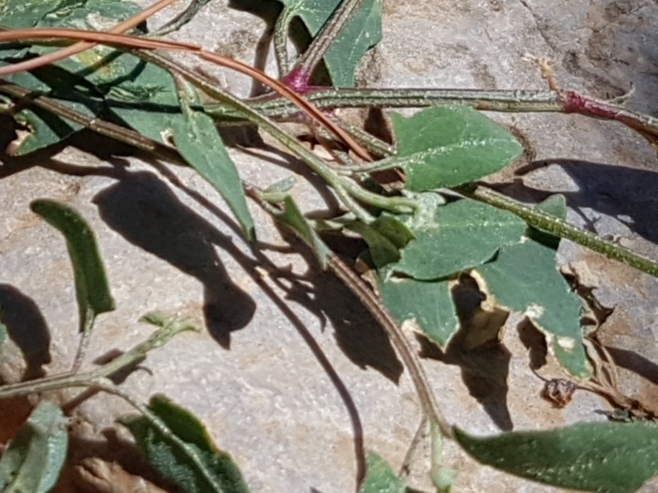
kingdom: Plantae
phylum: Tracheophyta
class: Magnoliopsida
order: Caryophyllales
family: Amaranthaceae
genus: Atriplex
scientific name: Atriplex prostrata
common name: Spear-leaved orache
